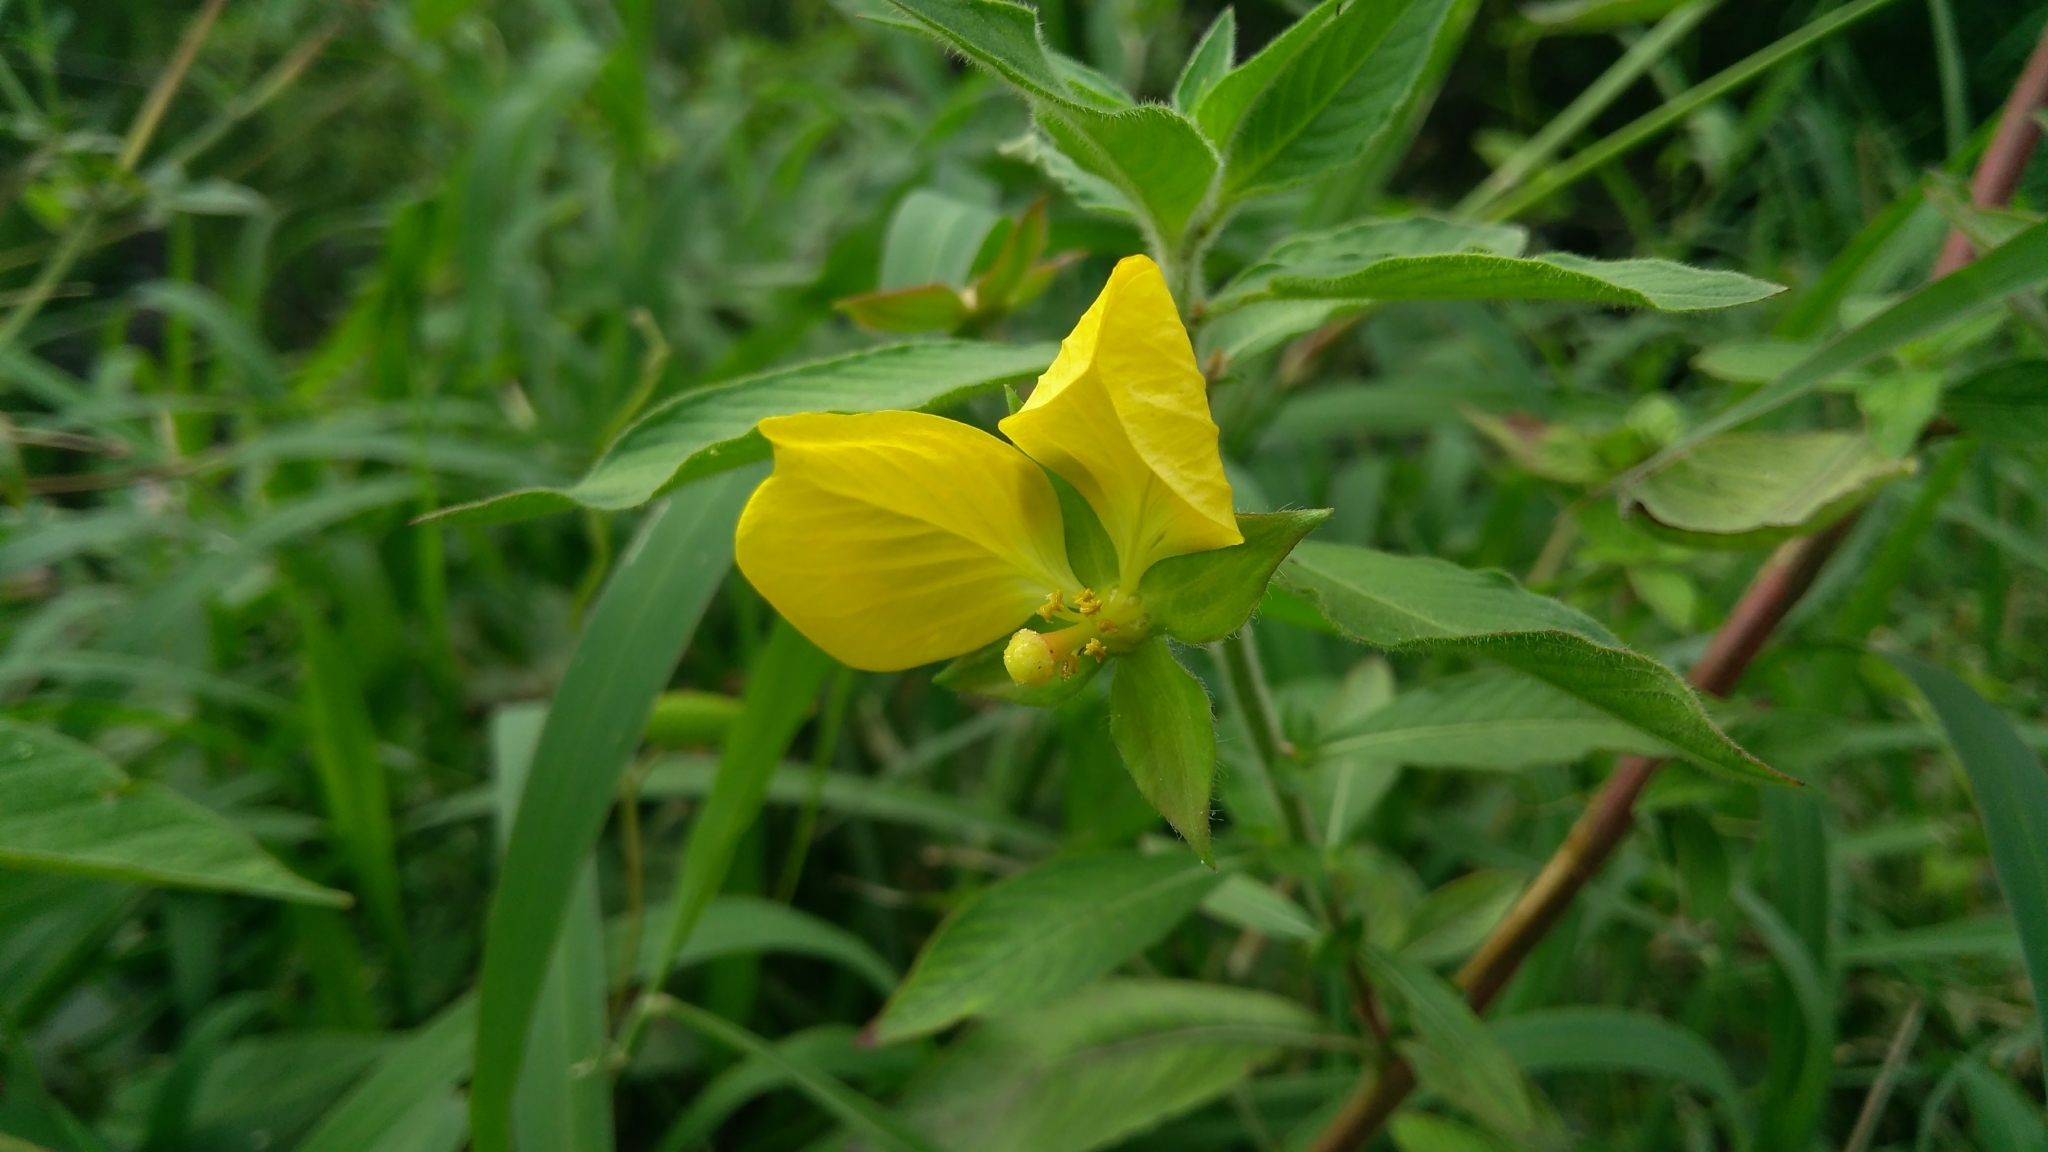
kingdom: Plantae
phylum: Tracheophyta
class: Magnoliopsida
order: Myrtales
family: Onagraceae
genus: Ludwigia
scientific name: Ludwigia octovalvis
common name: Water-primrose
